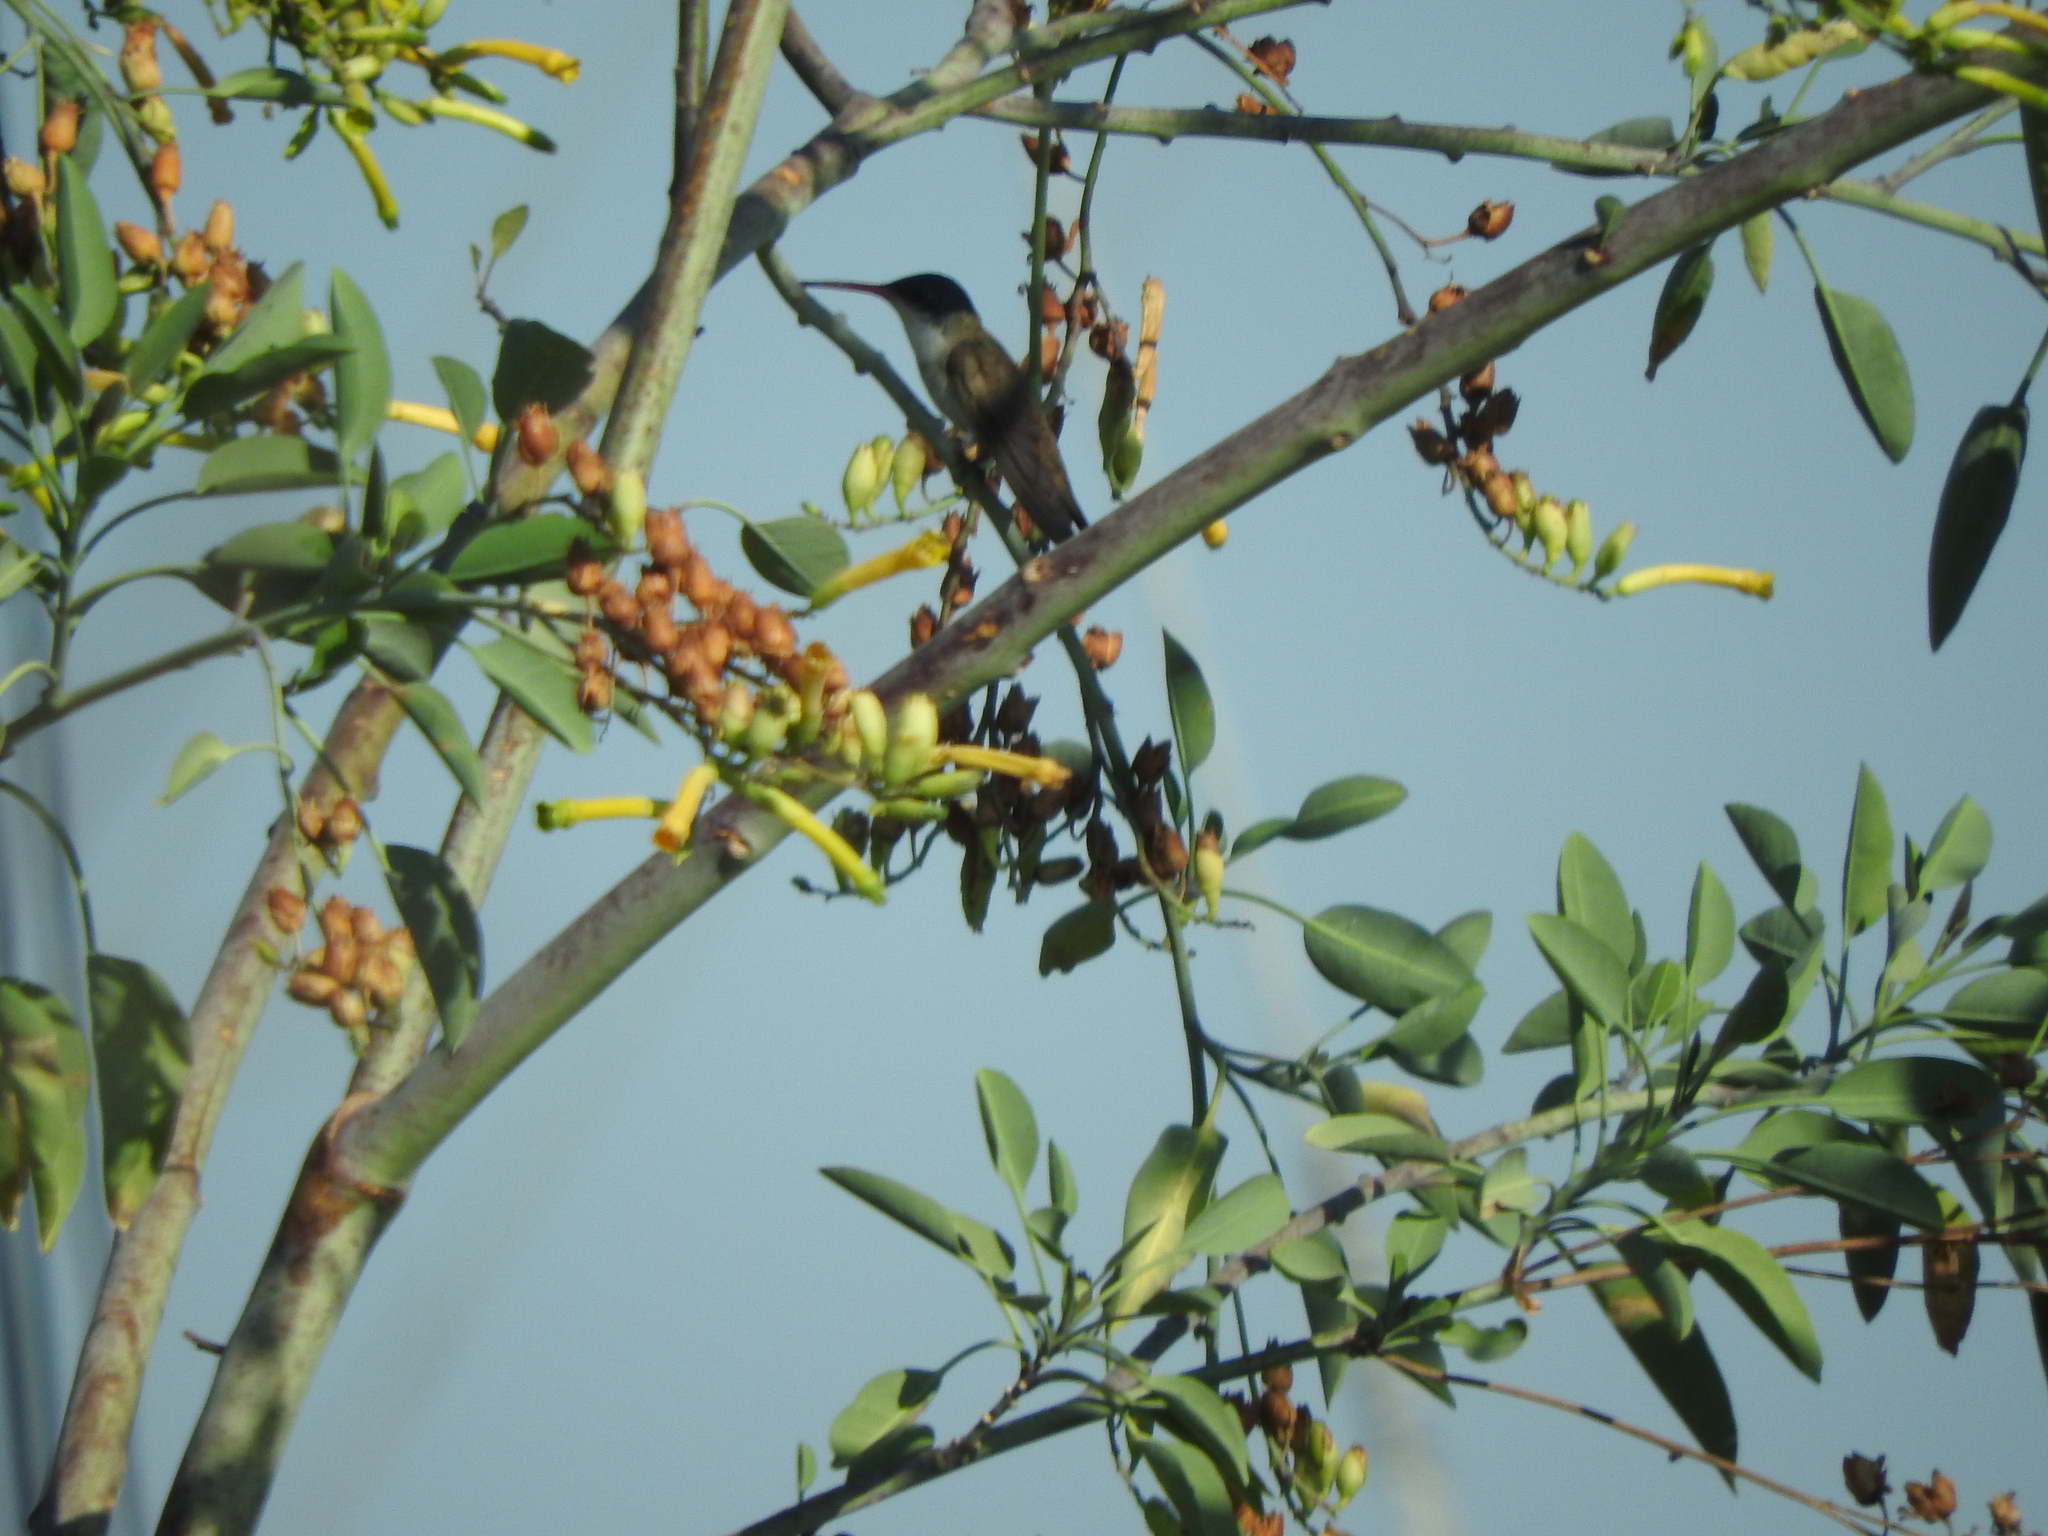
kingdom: Animalia
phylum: Chordata
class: Aves
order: Apodiformes
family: Trochilidae
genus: Leucolia
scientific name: Leucolia violiceps
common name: Violet-crowned hummingbird
